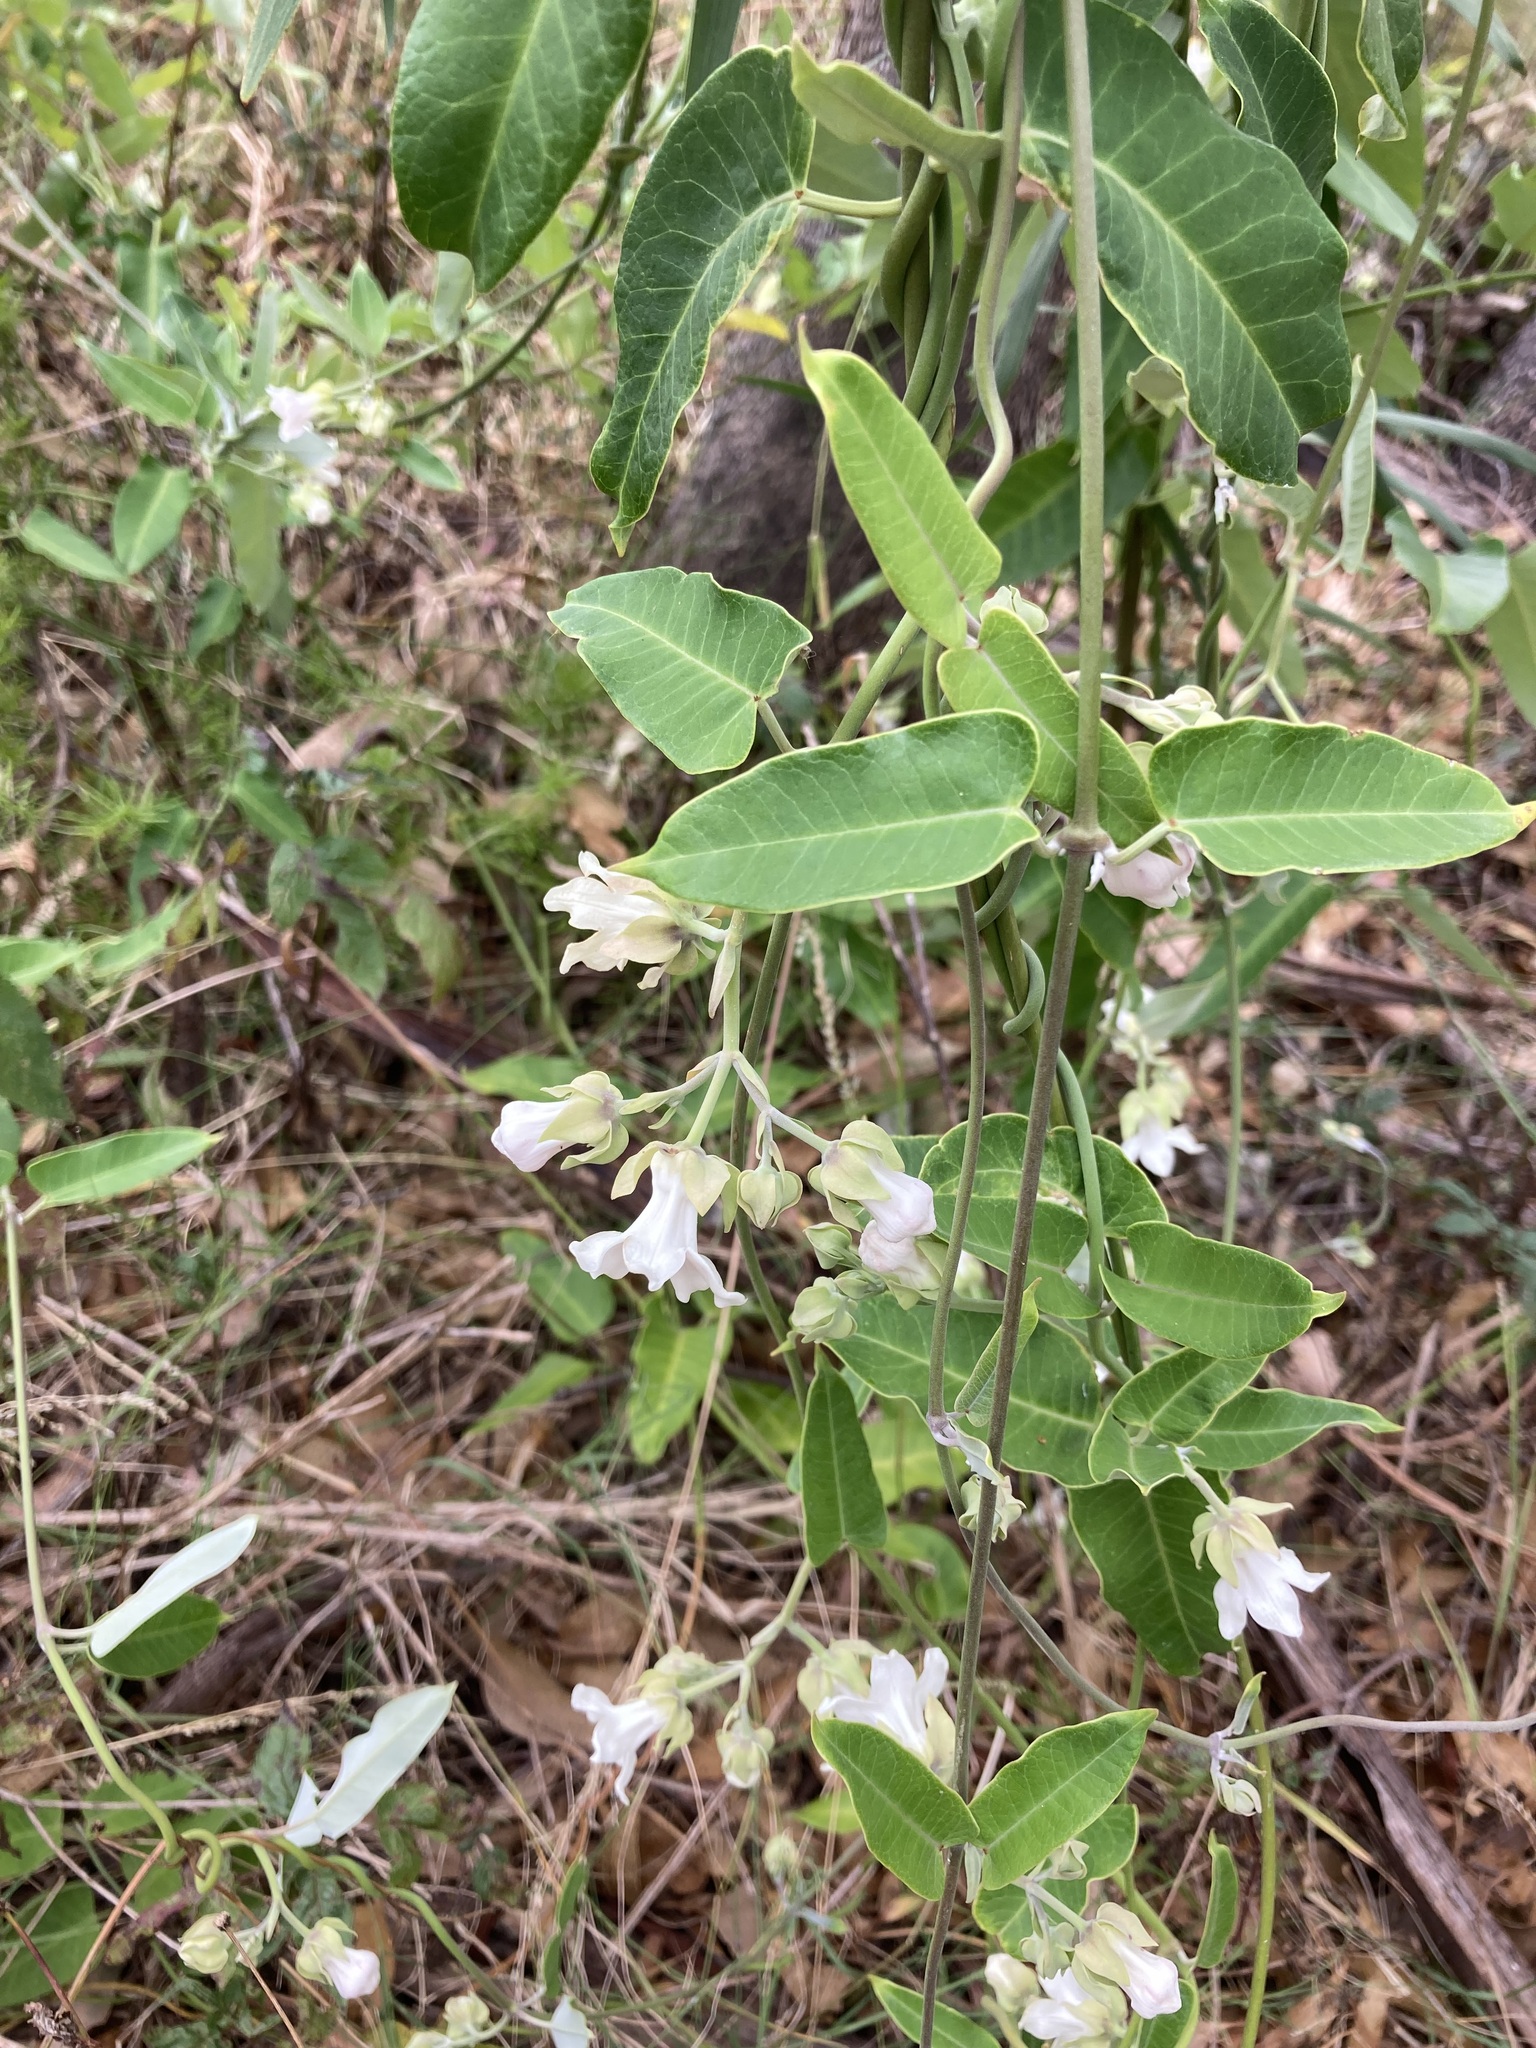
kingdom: Plantae
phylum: Tracheophyta
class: Magnoliopsida
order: Gentianales
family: Apocynaceae
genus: Araujia
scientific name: Araujia sericifera
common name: White bladderflower
